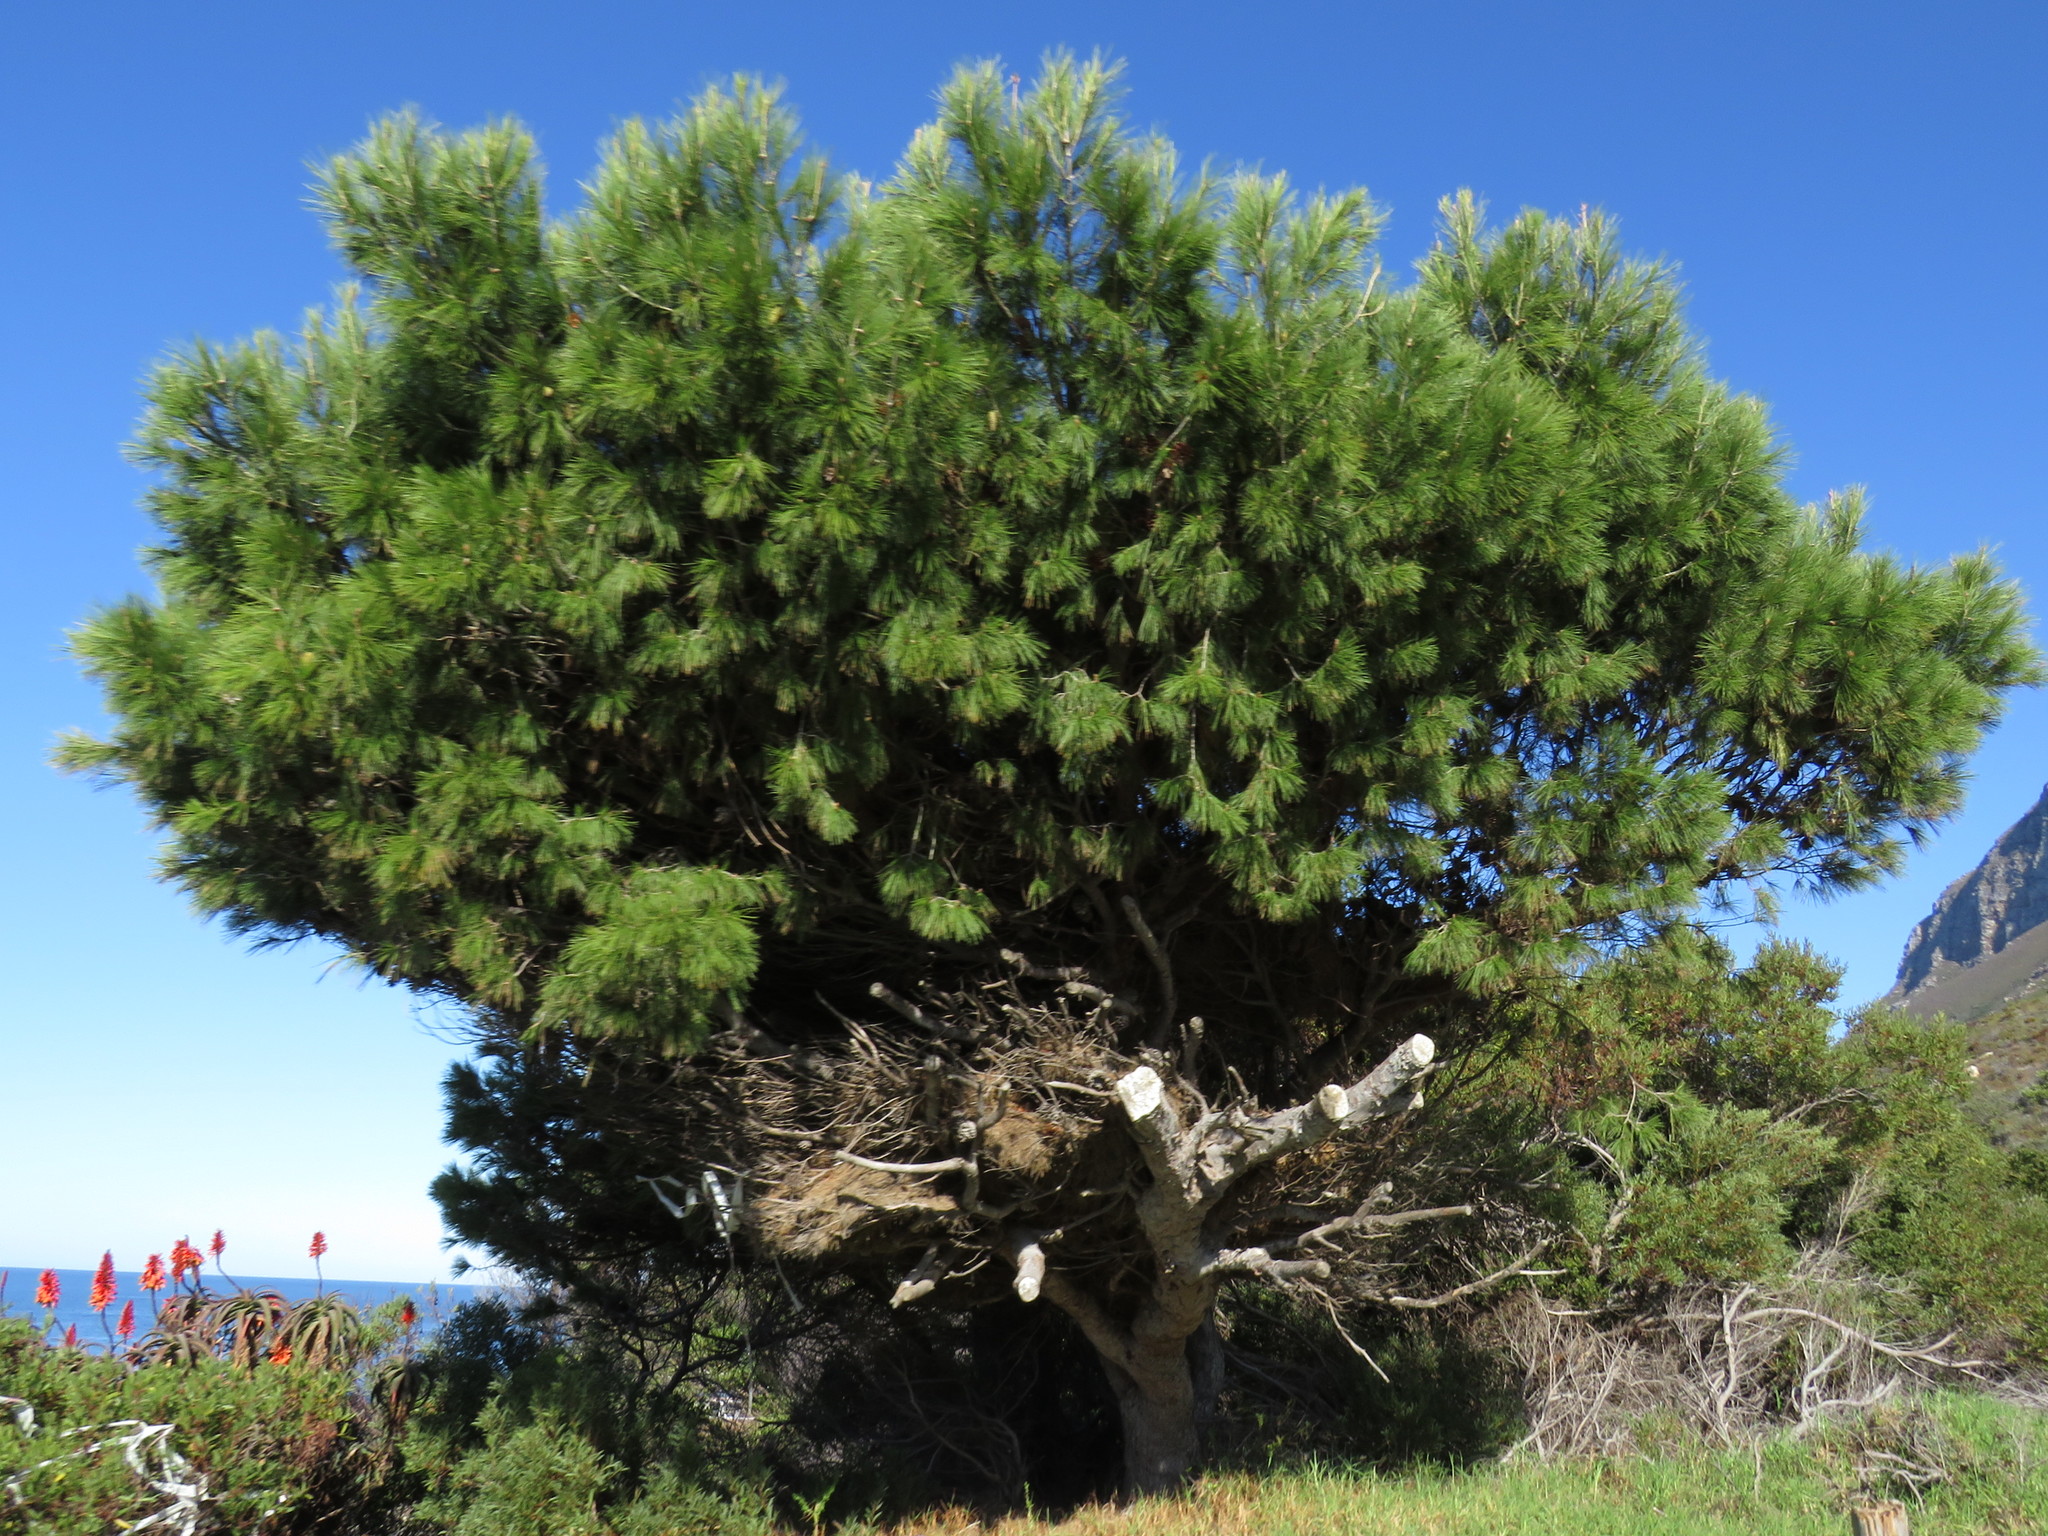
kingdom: Plantae
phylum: Tracheophyta
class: Pinopsida
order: Pinales
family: Pinaceae
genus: Pinus
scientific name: Pinus halepensis
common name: Aleppo pine
